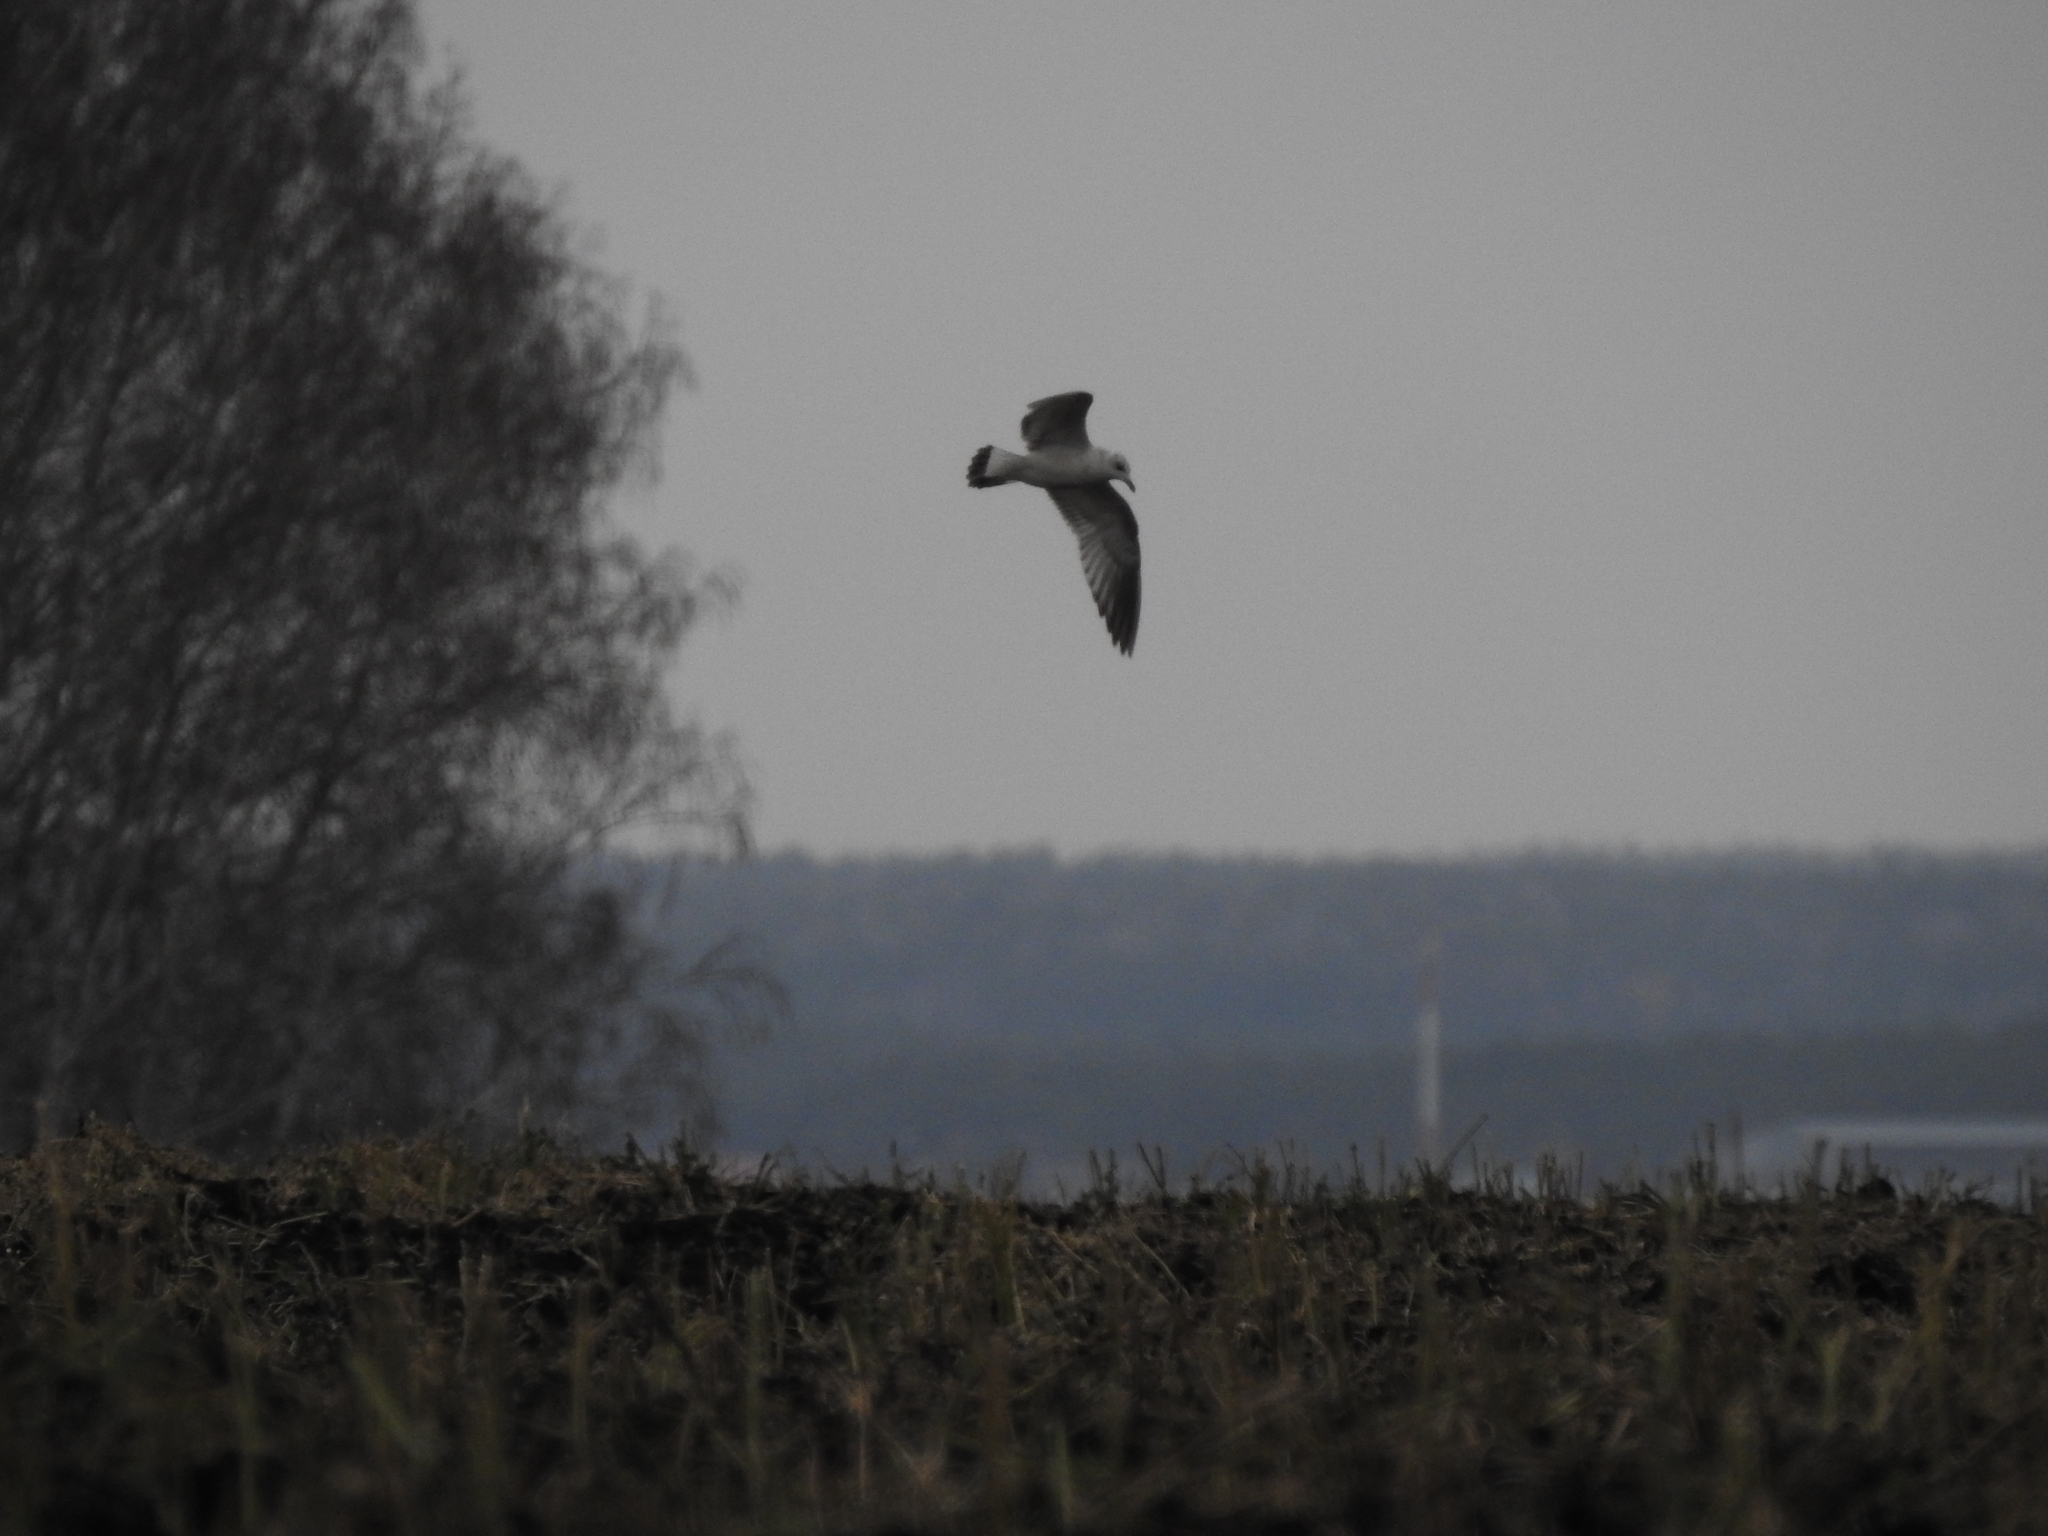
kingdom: Animalia
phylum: Chordata
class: Aves
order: Charadriiformes
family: Laridae
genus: Larus
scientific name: Larus fuscus
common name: Lesser black-backed gull
